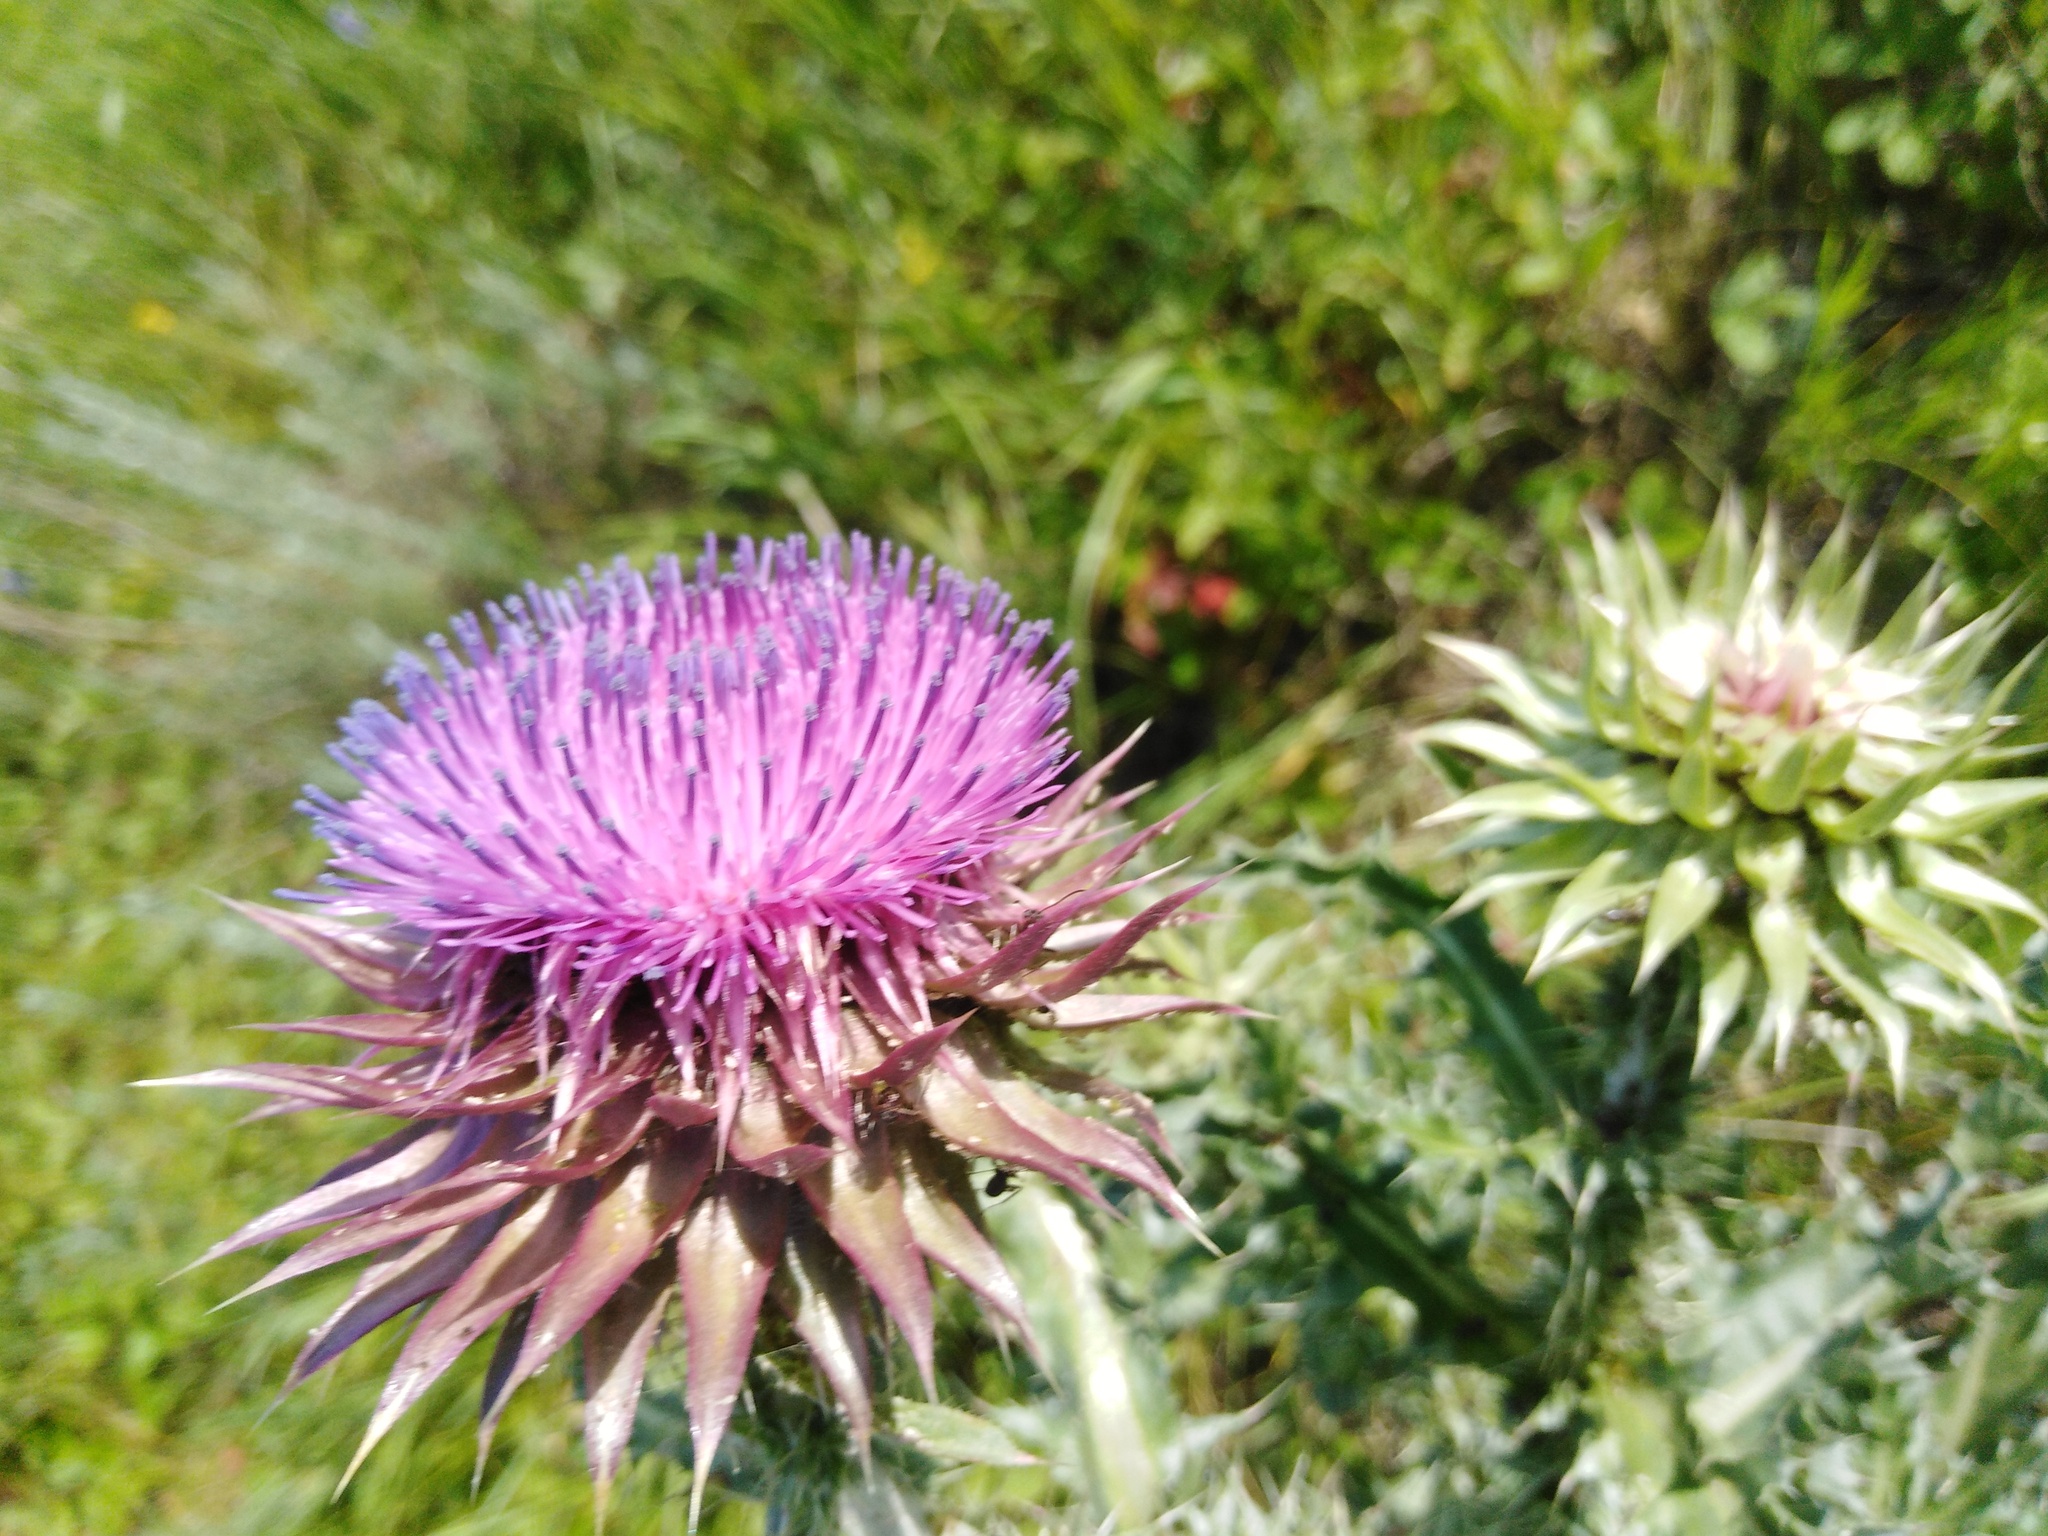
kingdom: Plantae
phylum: Tracheophyta
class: Magnoliopsida
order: Asterales
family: Asteraceae
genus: Carduus
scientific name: Carduus nutans
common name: Musk thistle
